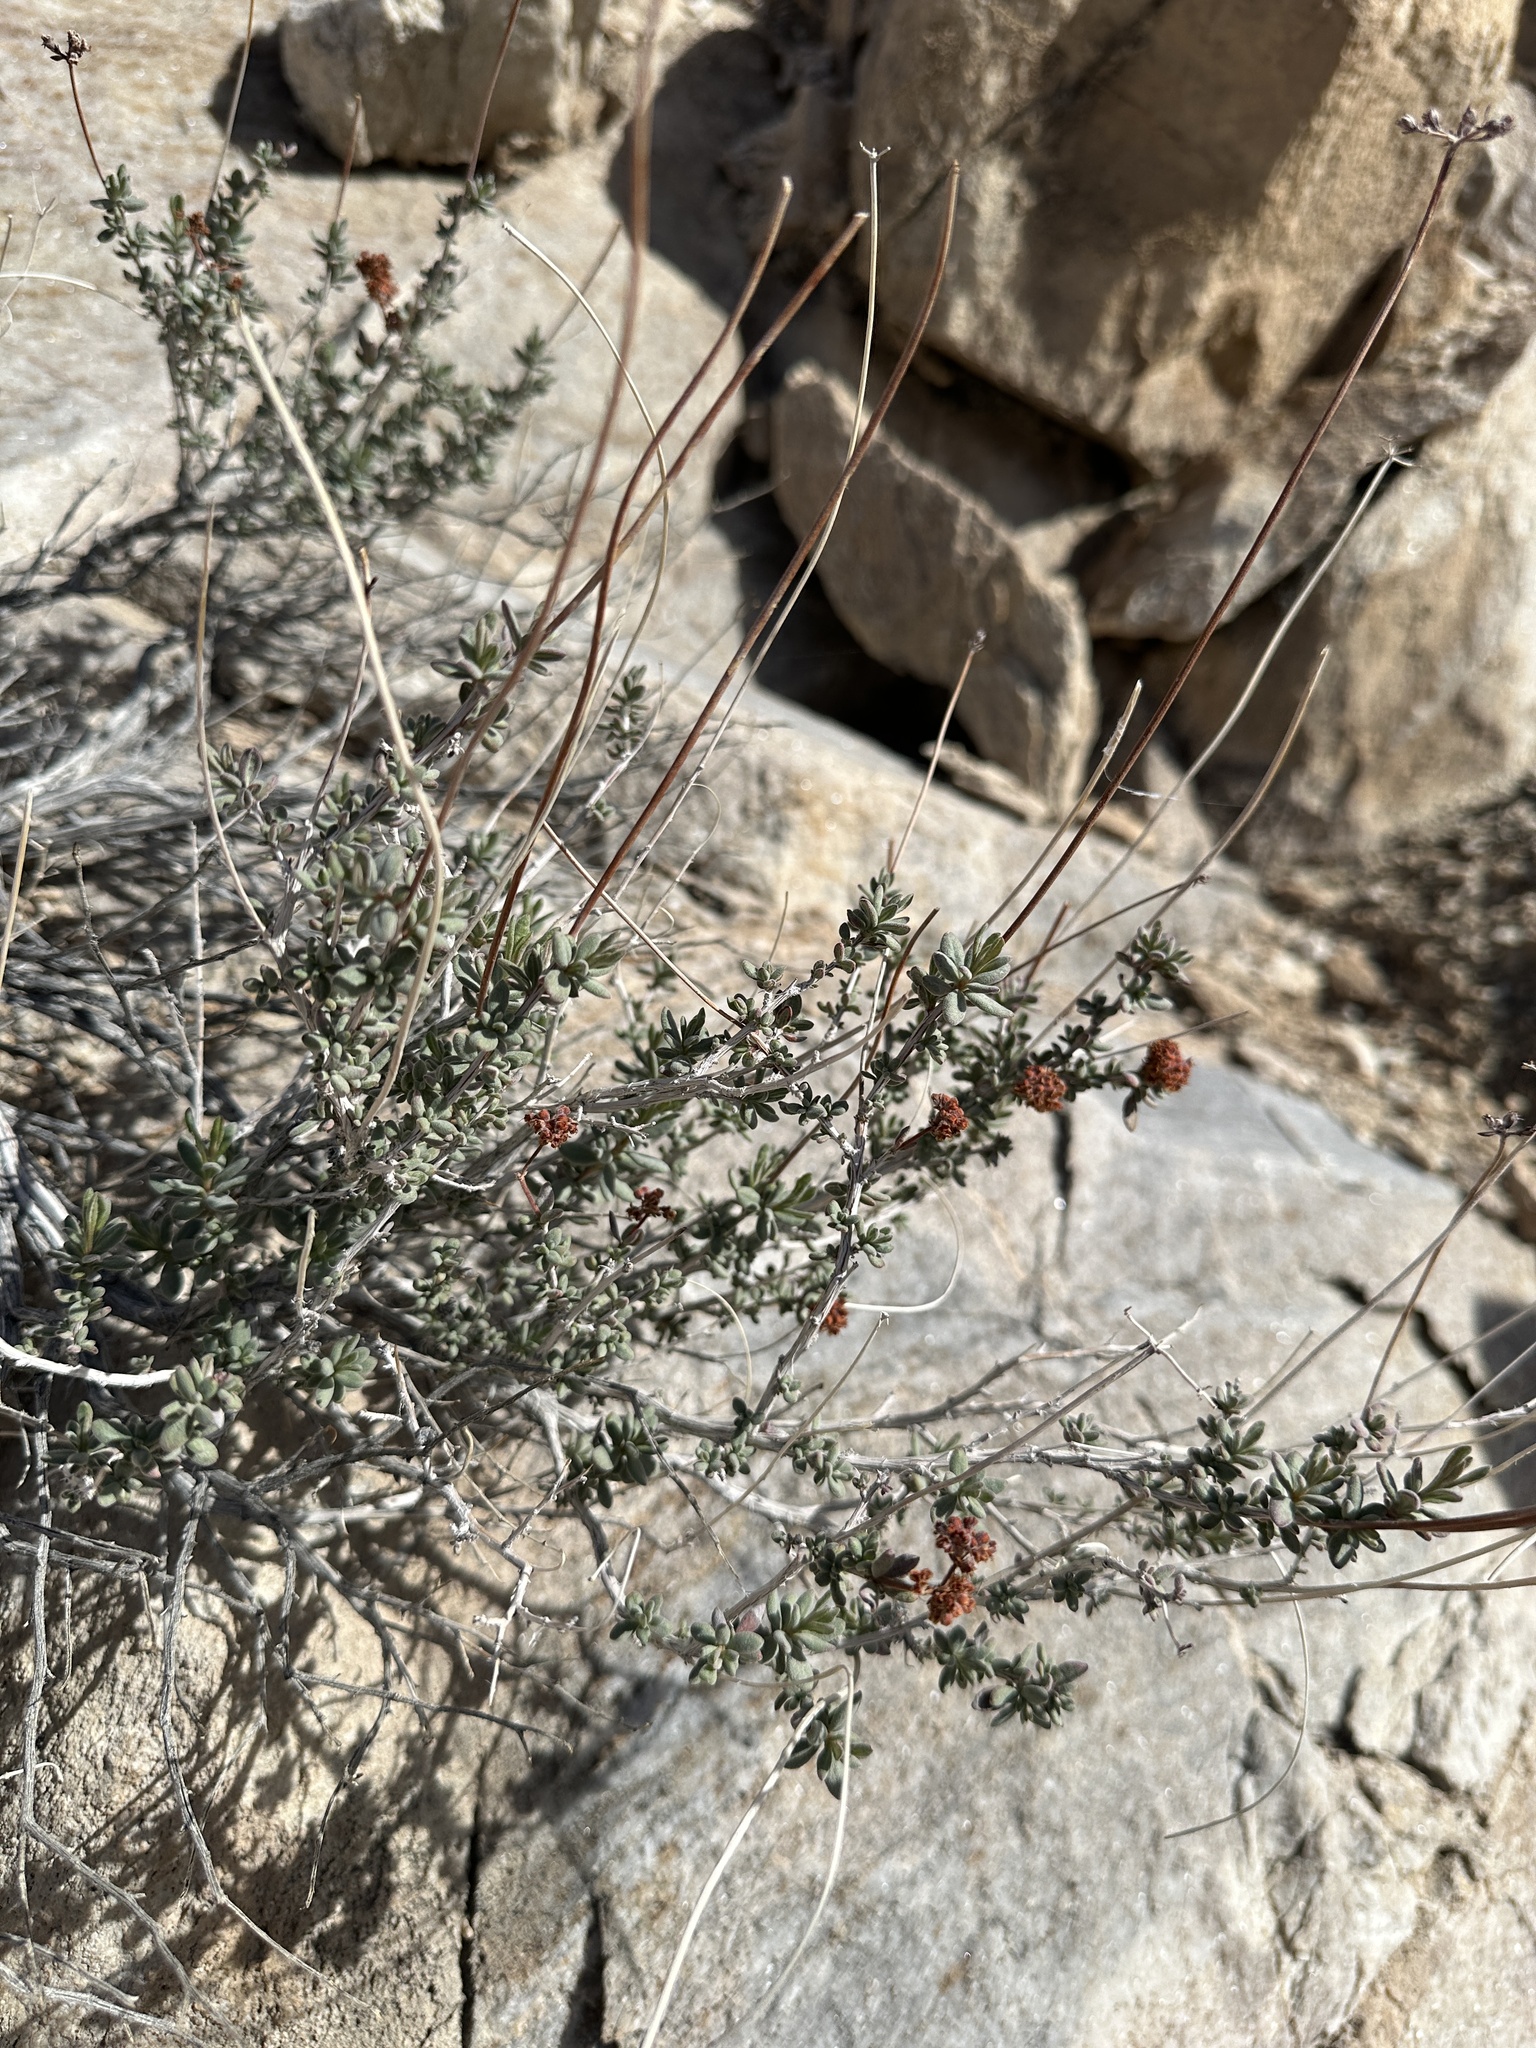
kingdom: Plantae
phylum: Tracheophyta
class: Magnoliopsida
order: Caryophyllales
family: Polygonaceae
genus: Eriogonum
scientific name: Eriogonum fasciculatum
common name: California wild buckwheat
